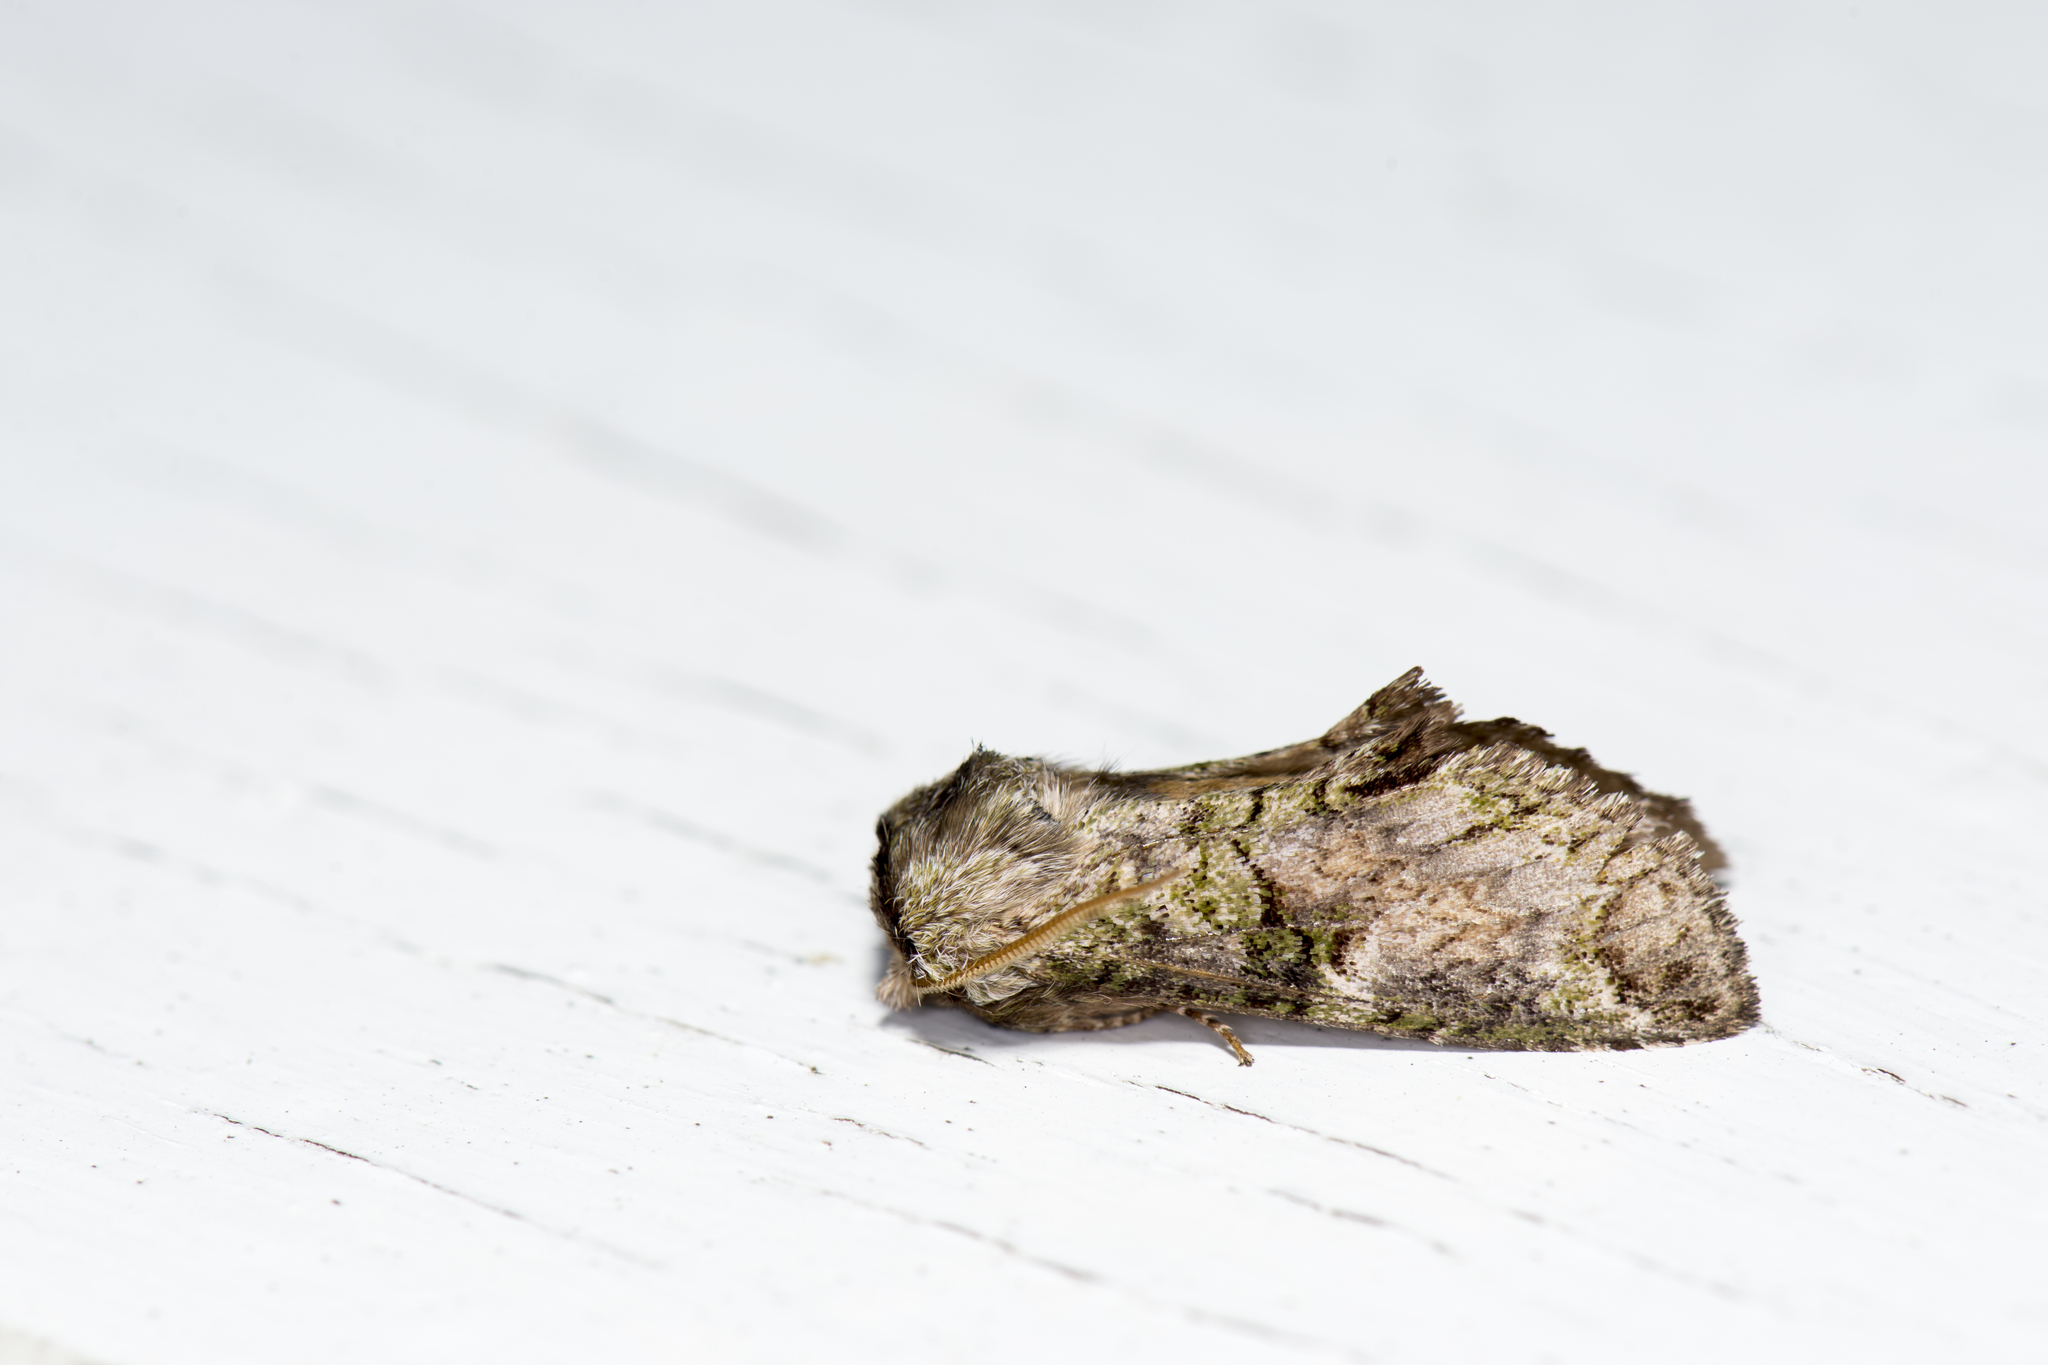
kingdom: Animalia
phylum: Arthropoda
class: Insecta
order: Lepidoptera
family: Notodontidae
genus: Ellida
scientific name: Ellida arcuata
